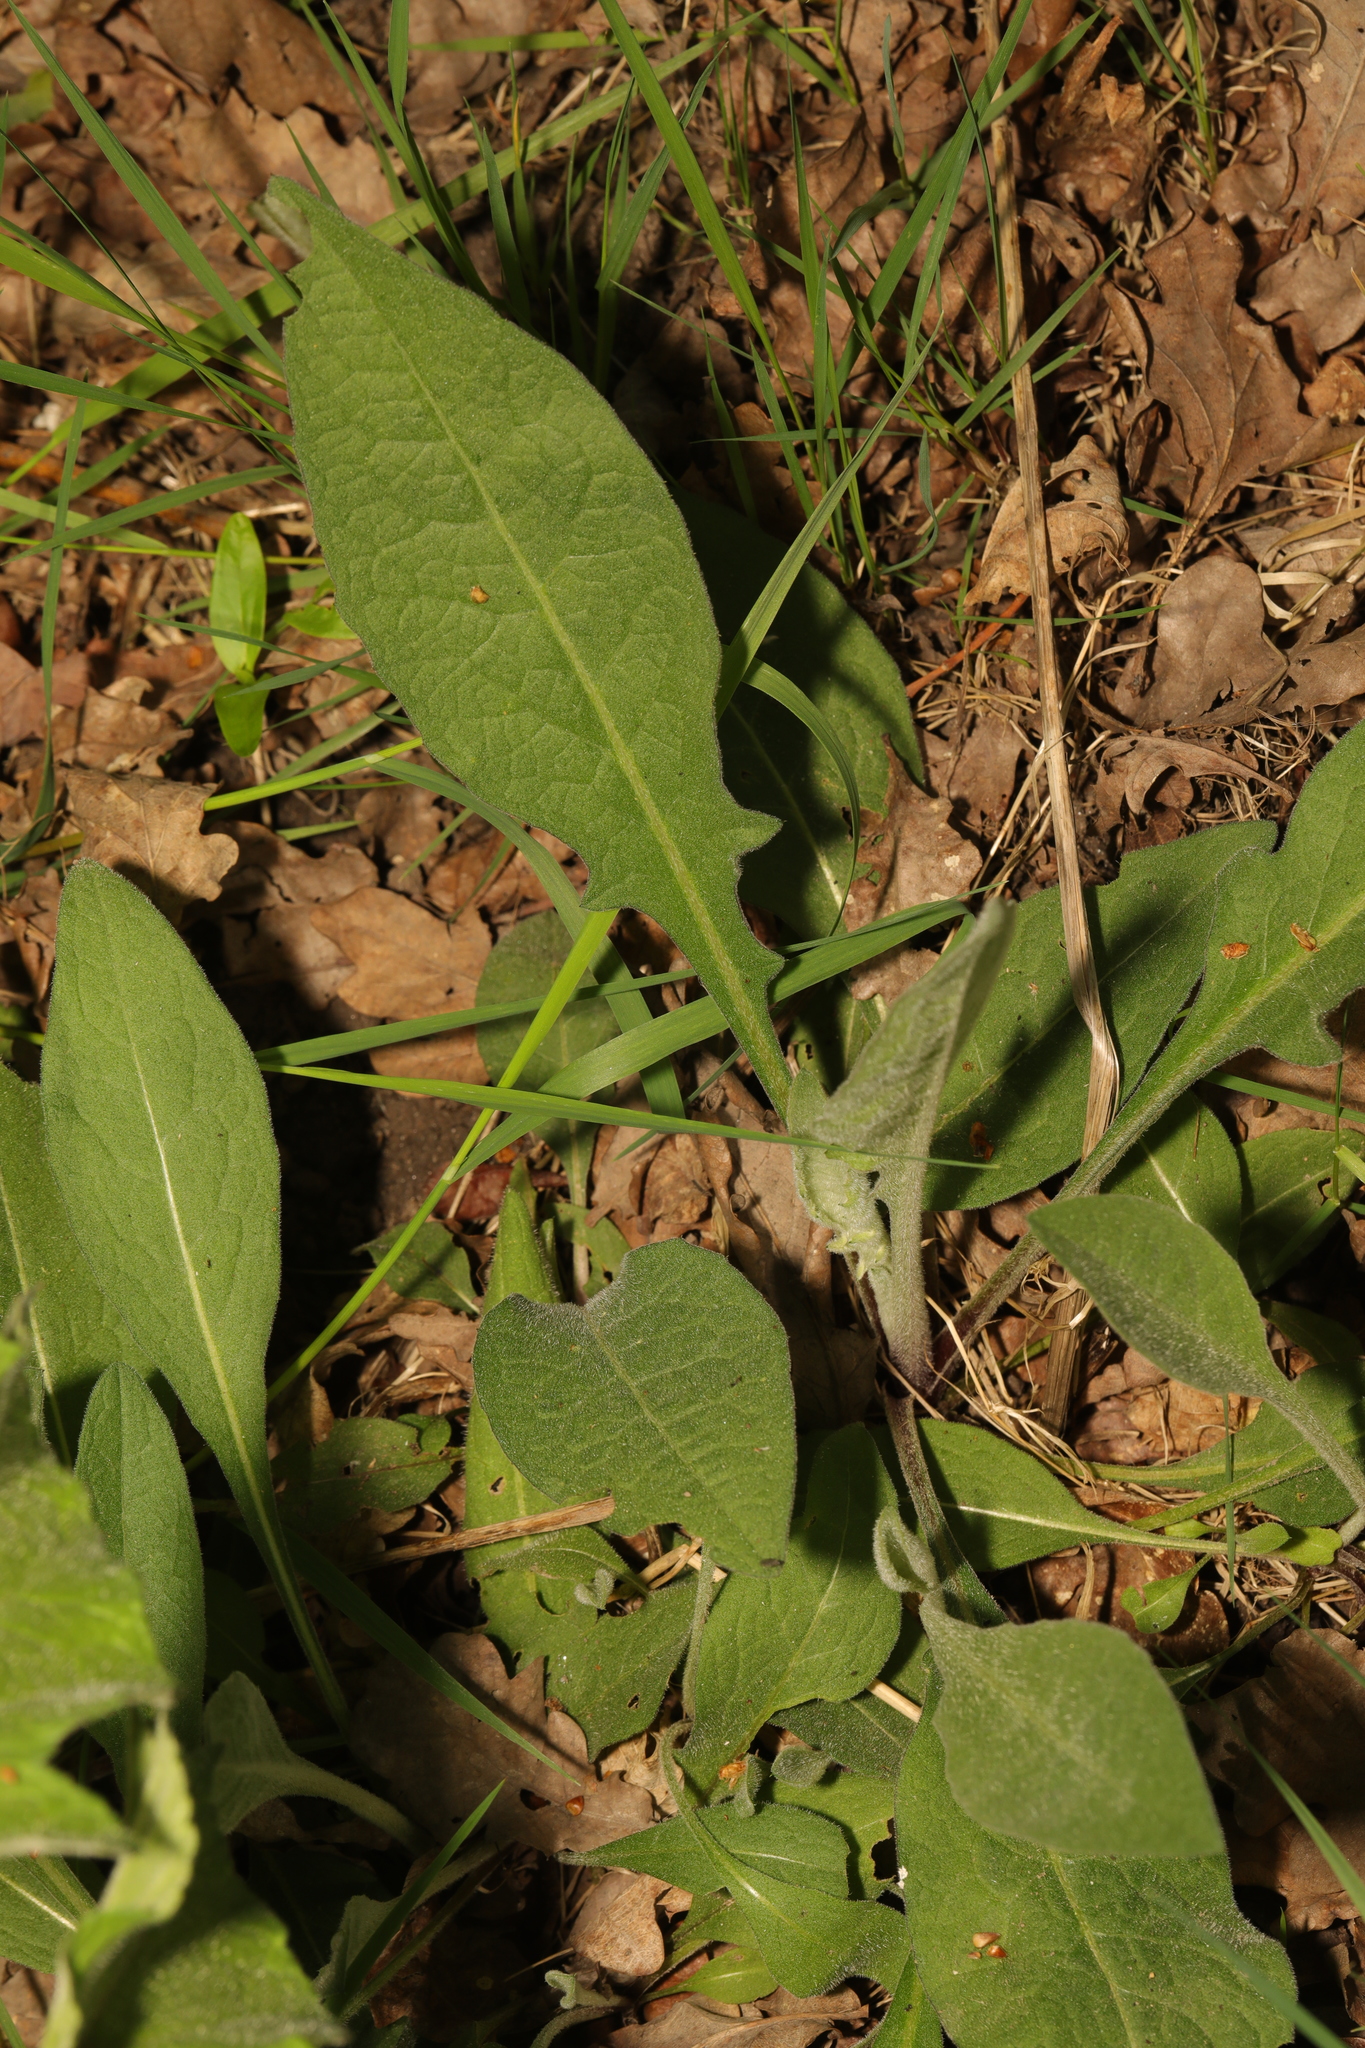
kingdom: Plantae
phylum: Tracheophyta
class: Magnoliopsida
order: Asterales
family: Asteraceae
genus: Centaurea
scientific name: Centaurea nigra
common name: Lesser knapweed
